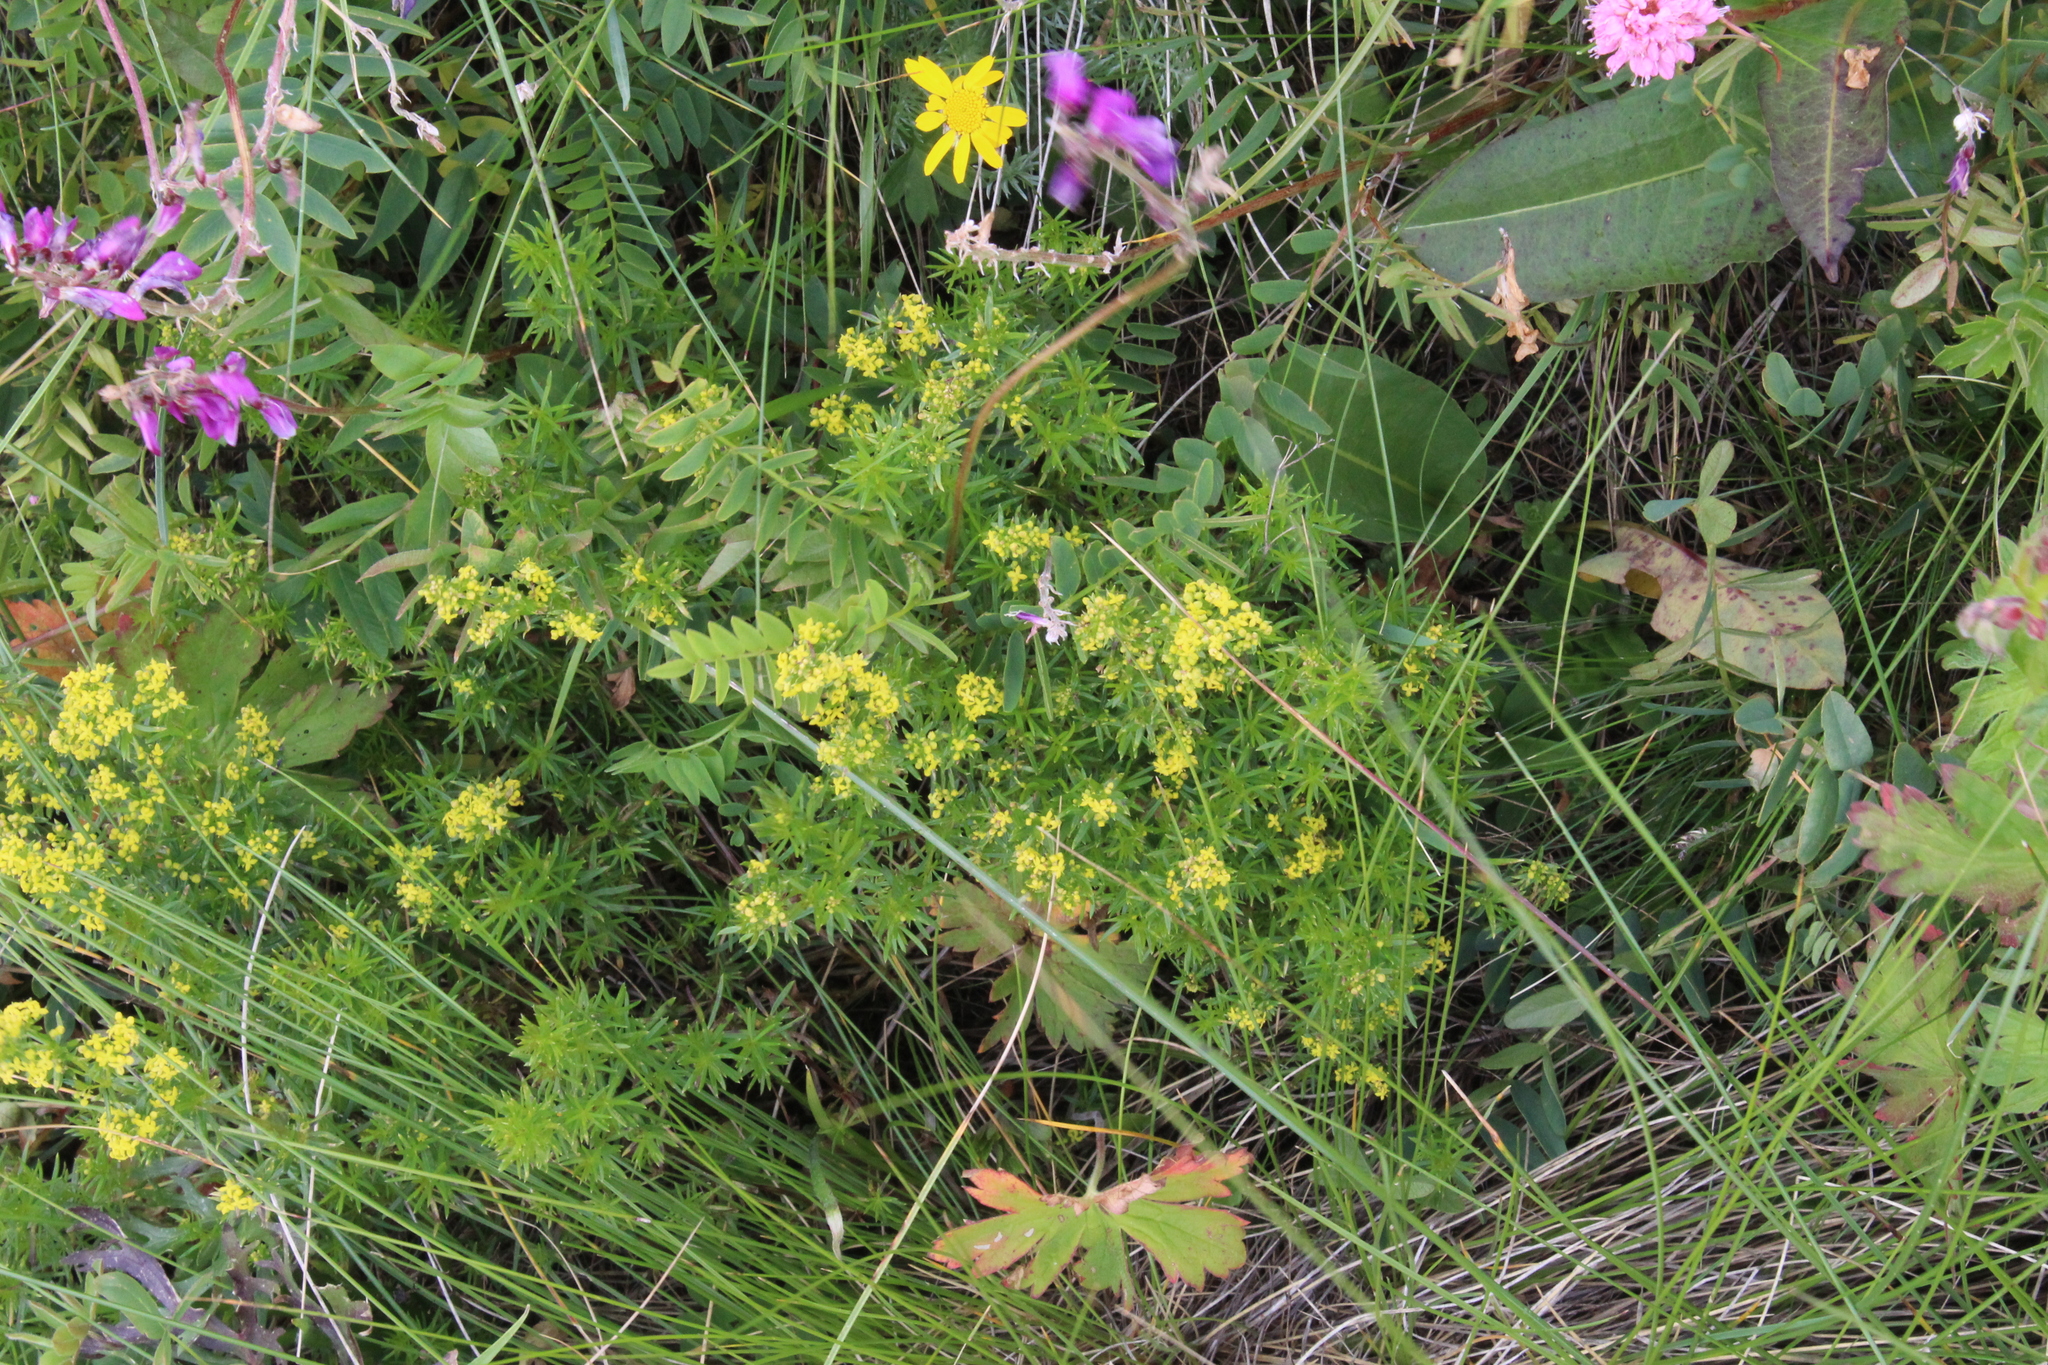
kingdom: Plantae
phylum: Tracheophyta
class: Magnoliopsida
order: Gentianales
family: Rubiaceae
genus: Galium
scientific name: Galium verum
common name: Lady's bedstraw
